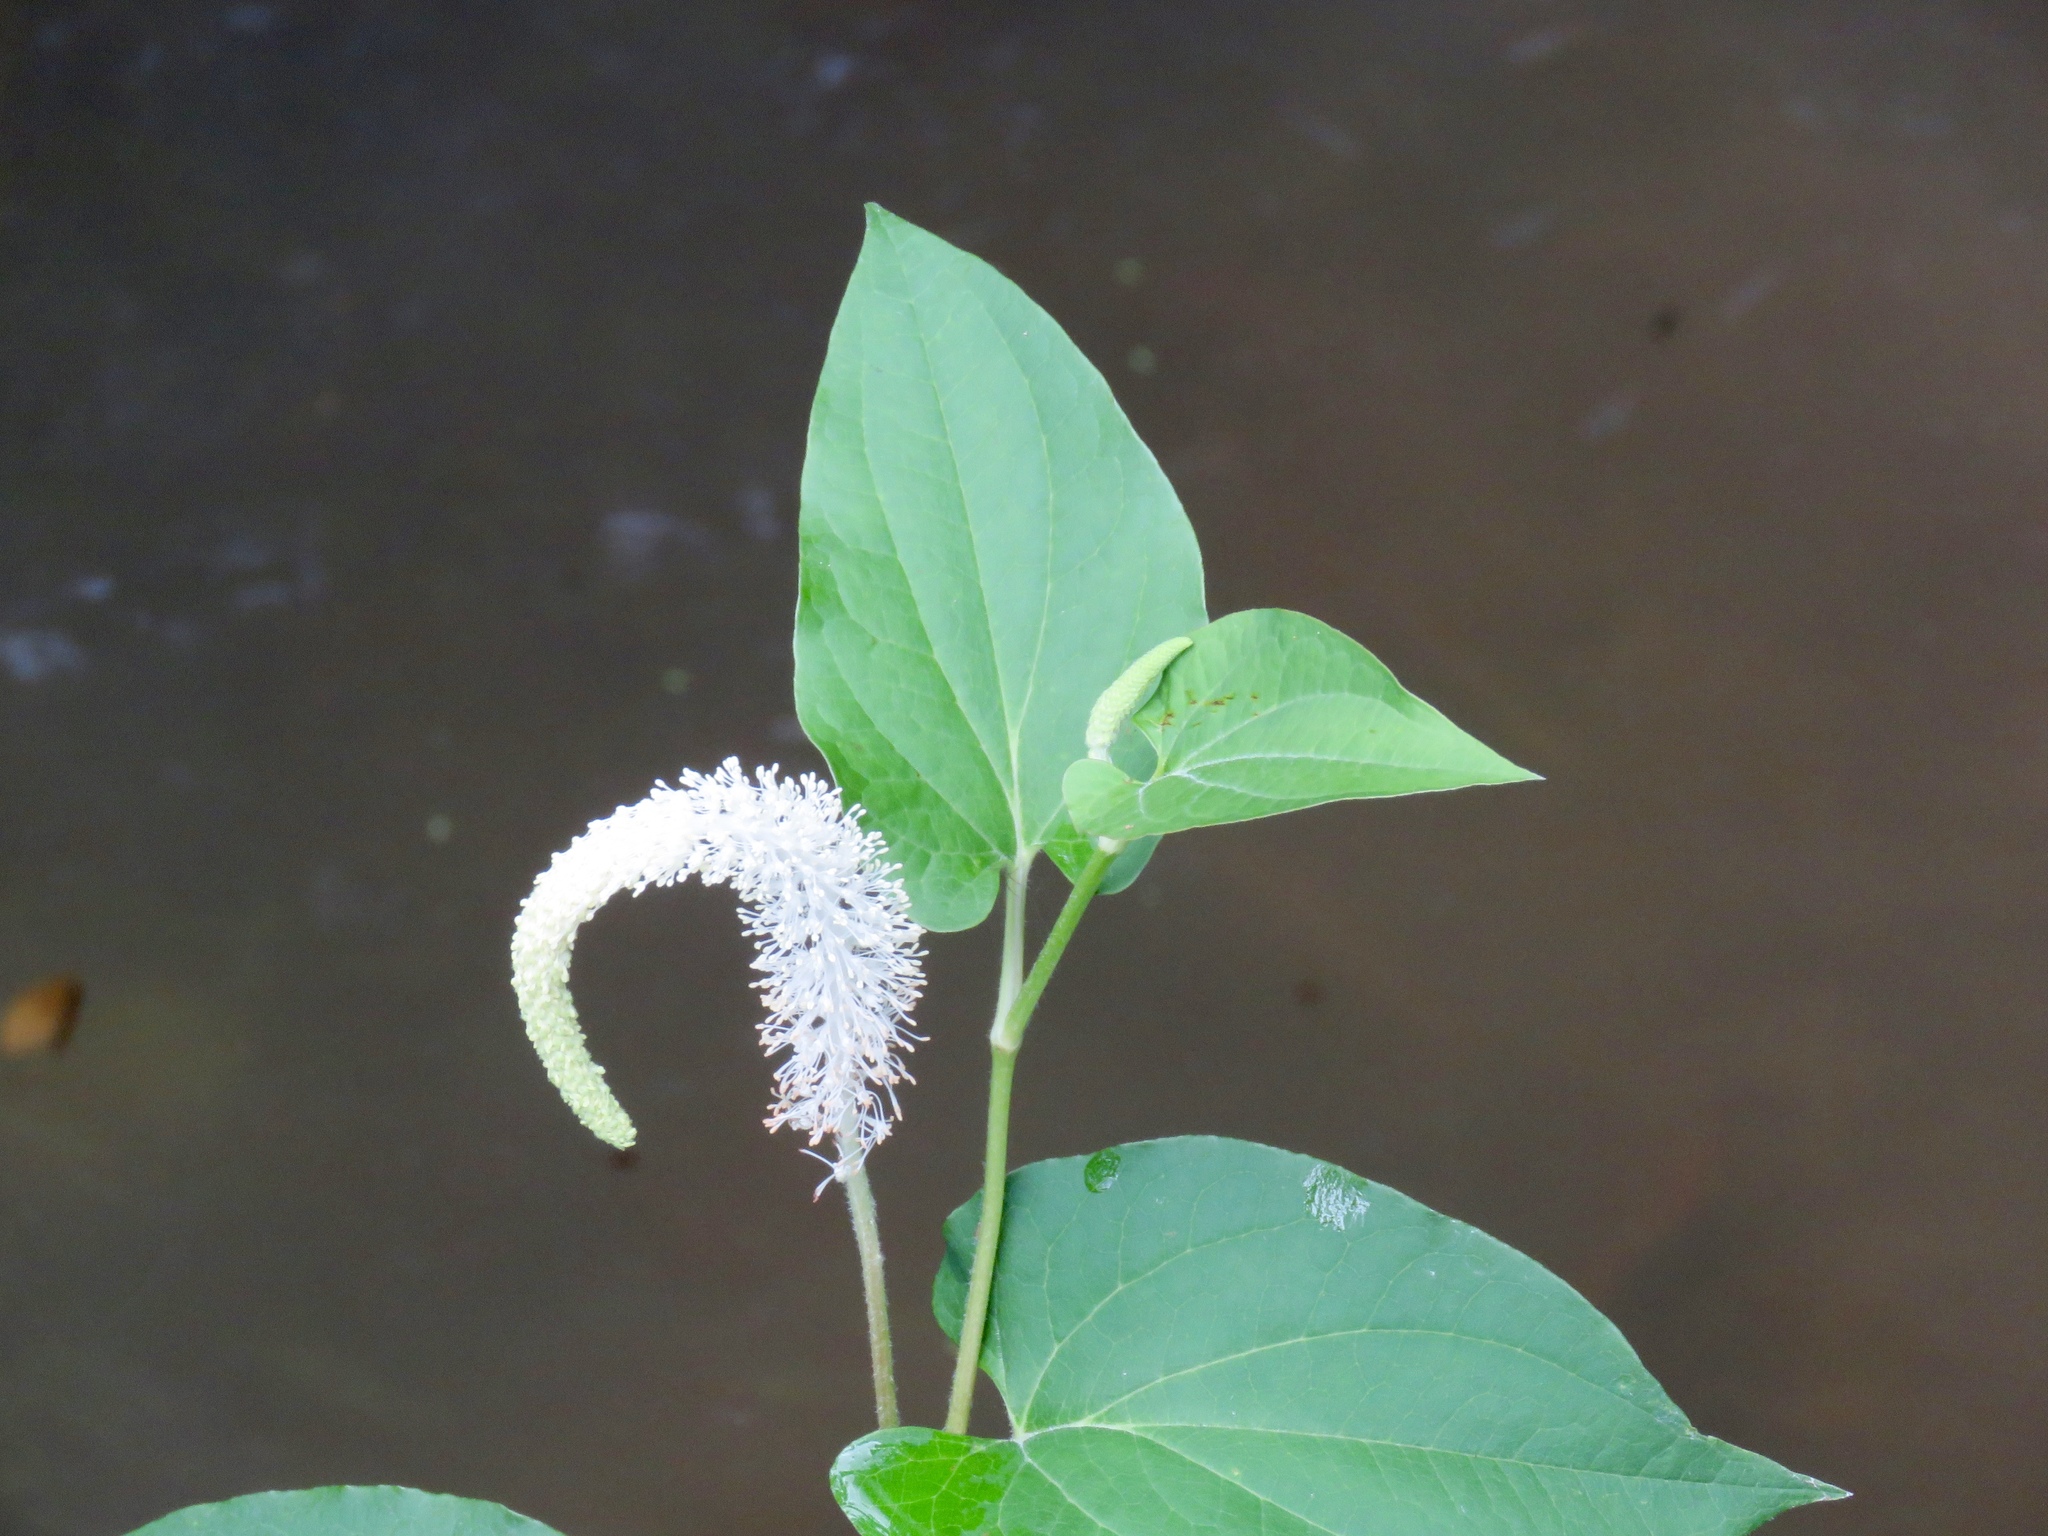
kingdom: Plantae
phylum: Tracheophyta
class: Magnoliopsida
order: Piperales
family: Saururaceae
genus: Saururus
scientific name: Saururus cernuus
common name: Lizard's-tail
